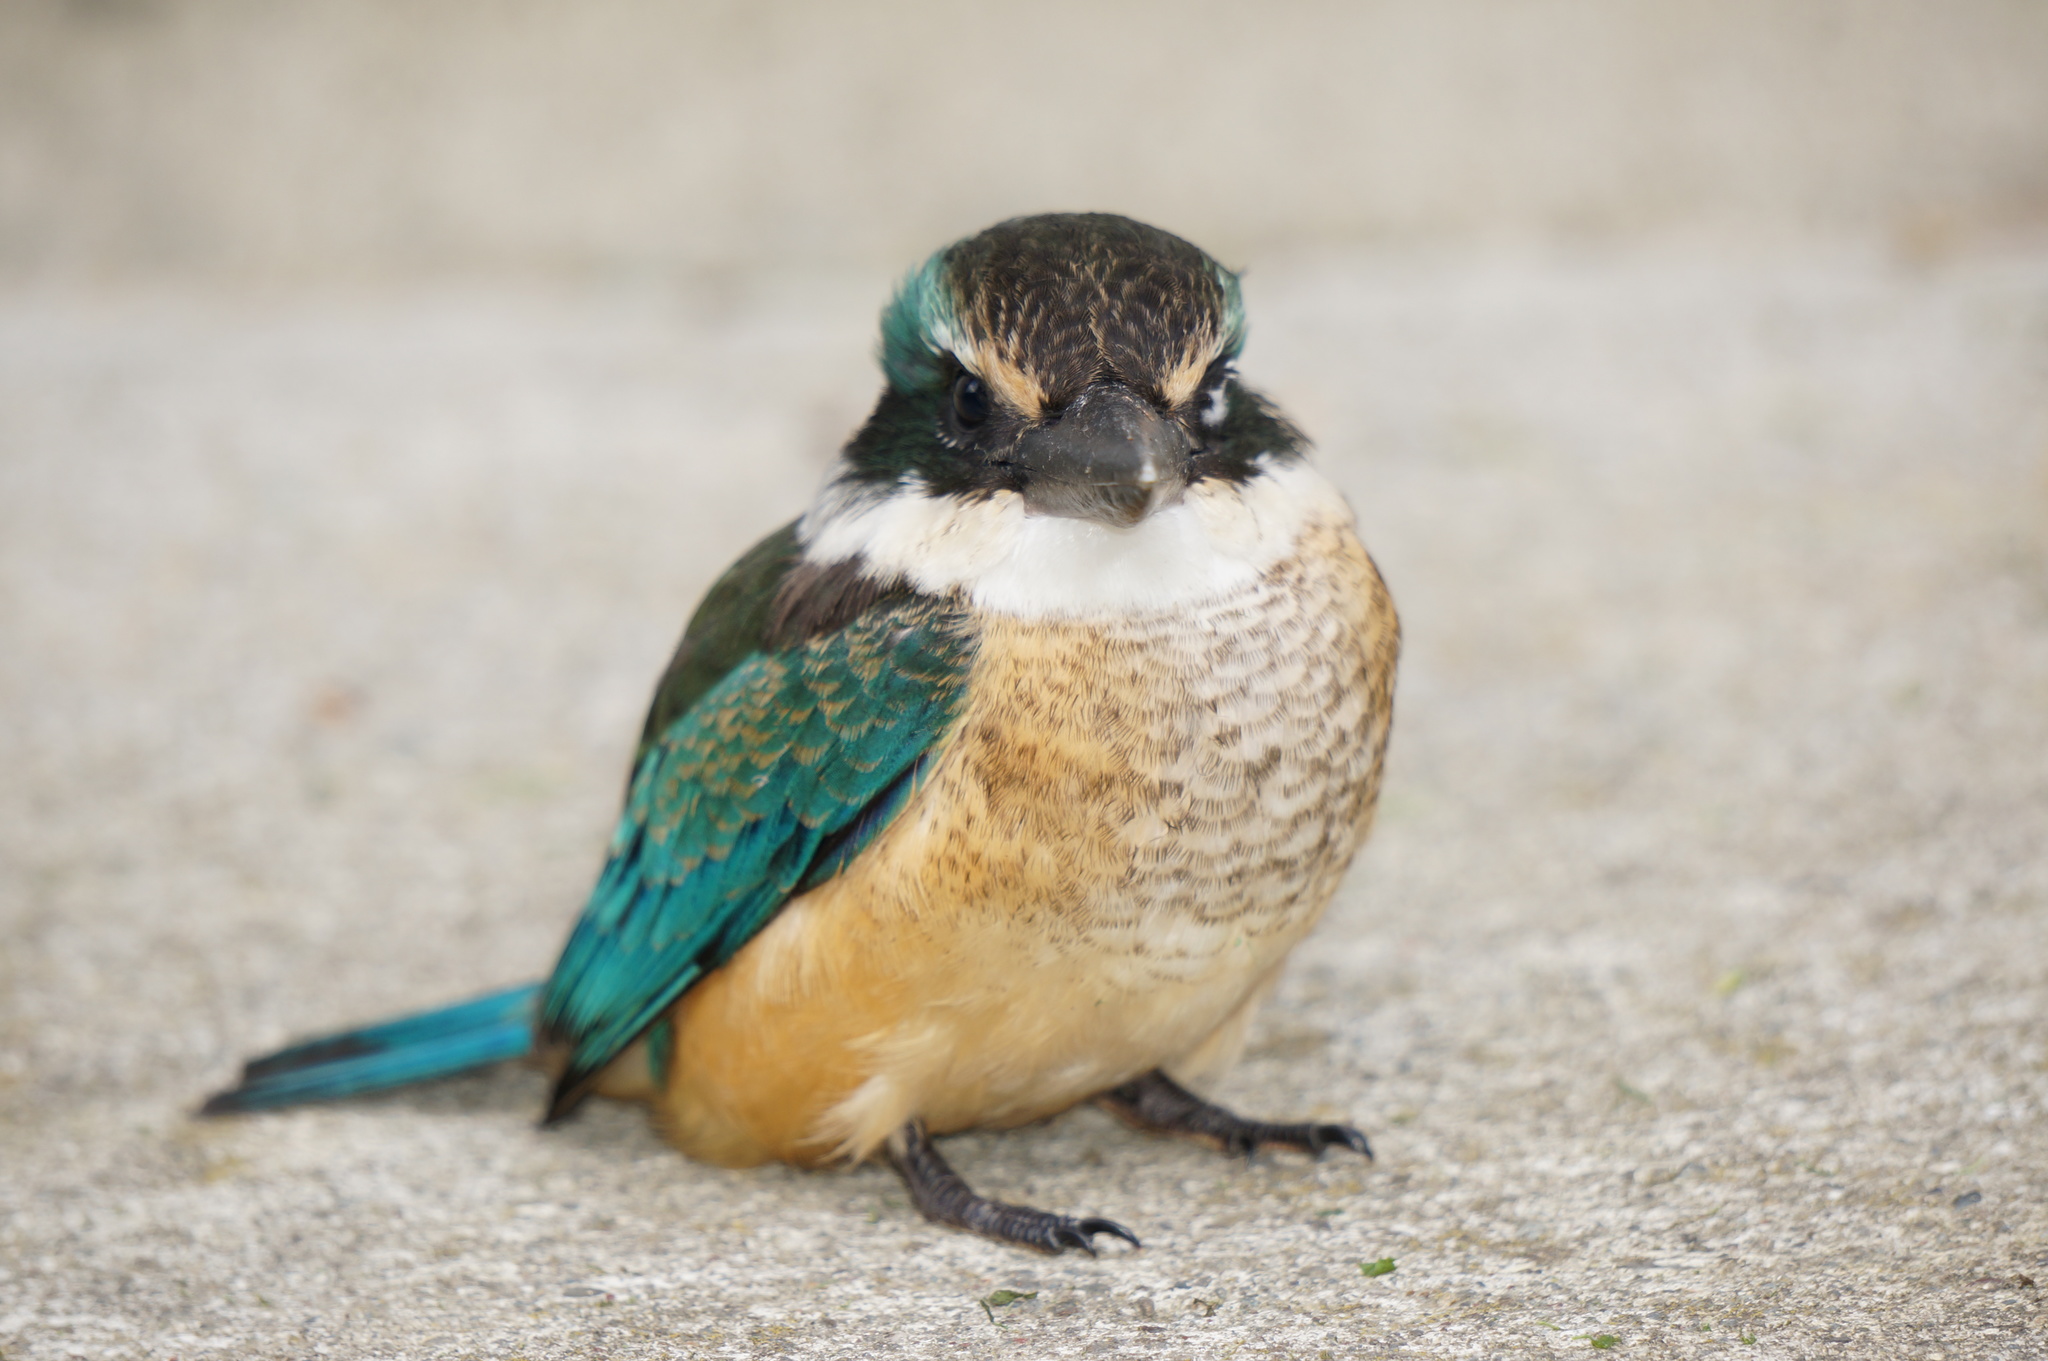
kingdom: Animalia
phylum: Chordata
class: Aves
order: Coraciiformes
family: Alcedinidae
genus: Todiramphus
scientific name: Todiramphus sanctus
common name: Sacred kingfisher
